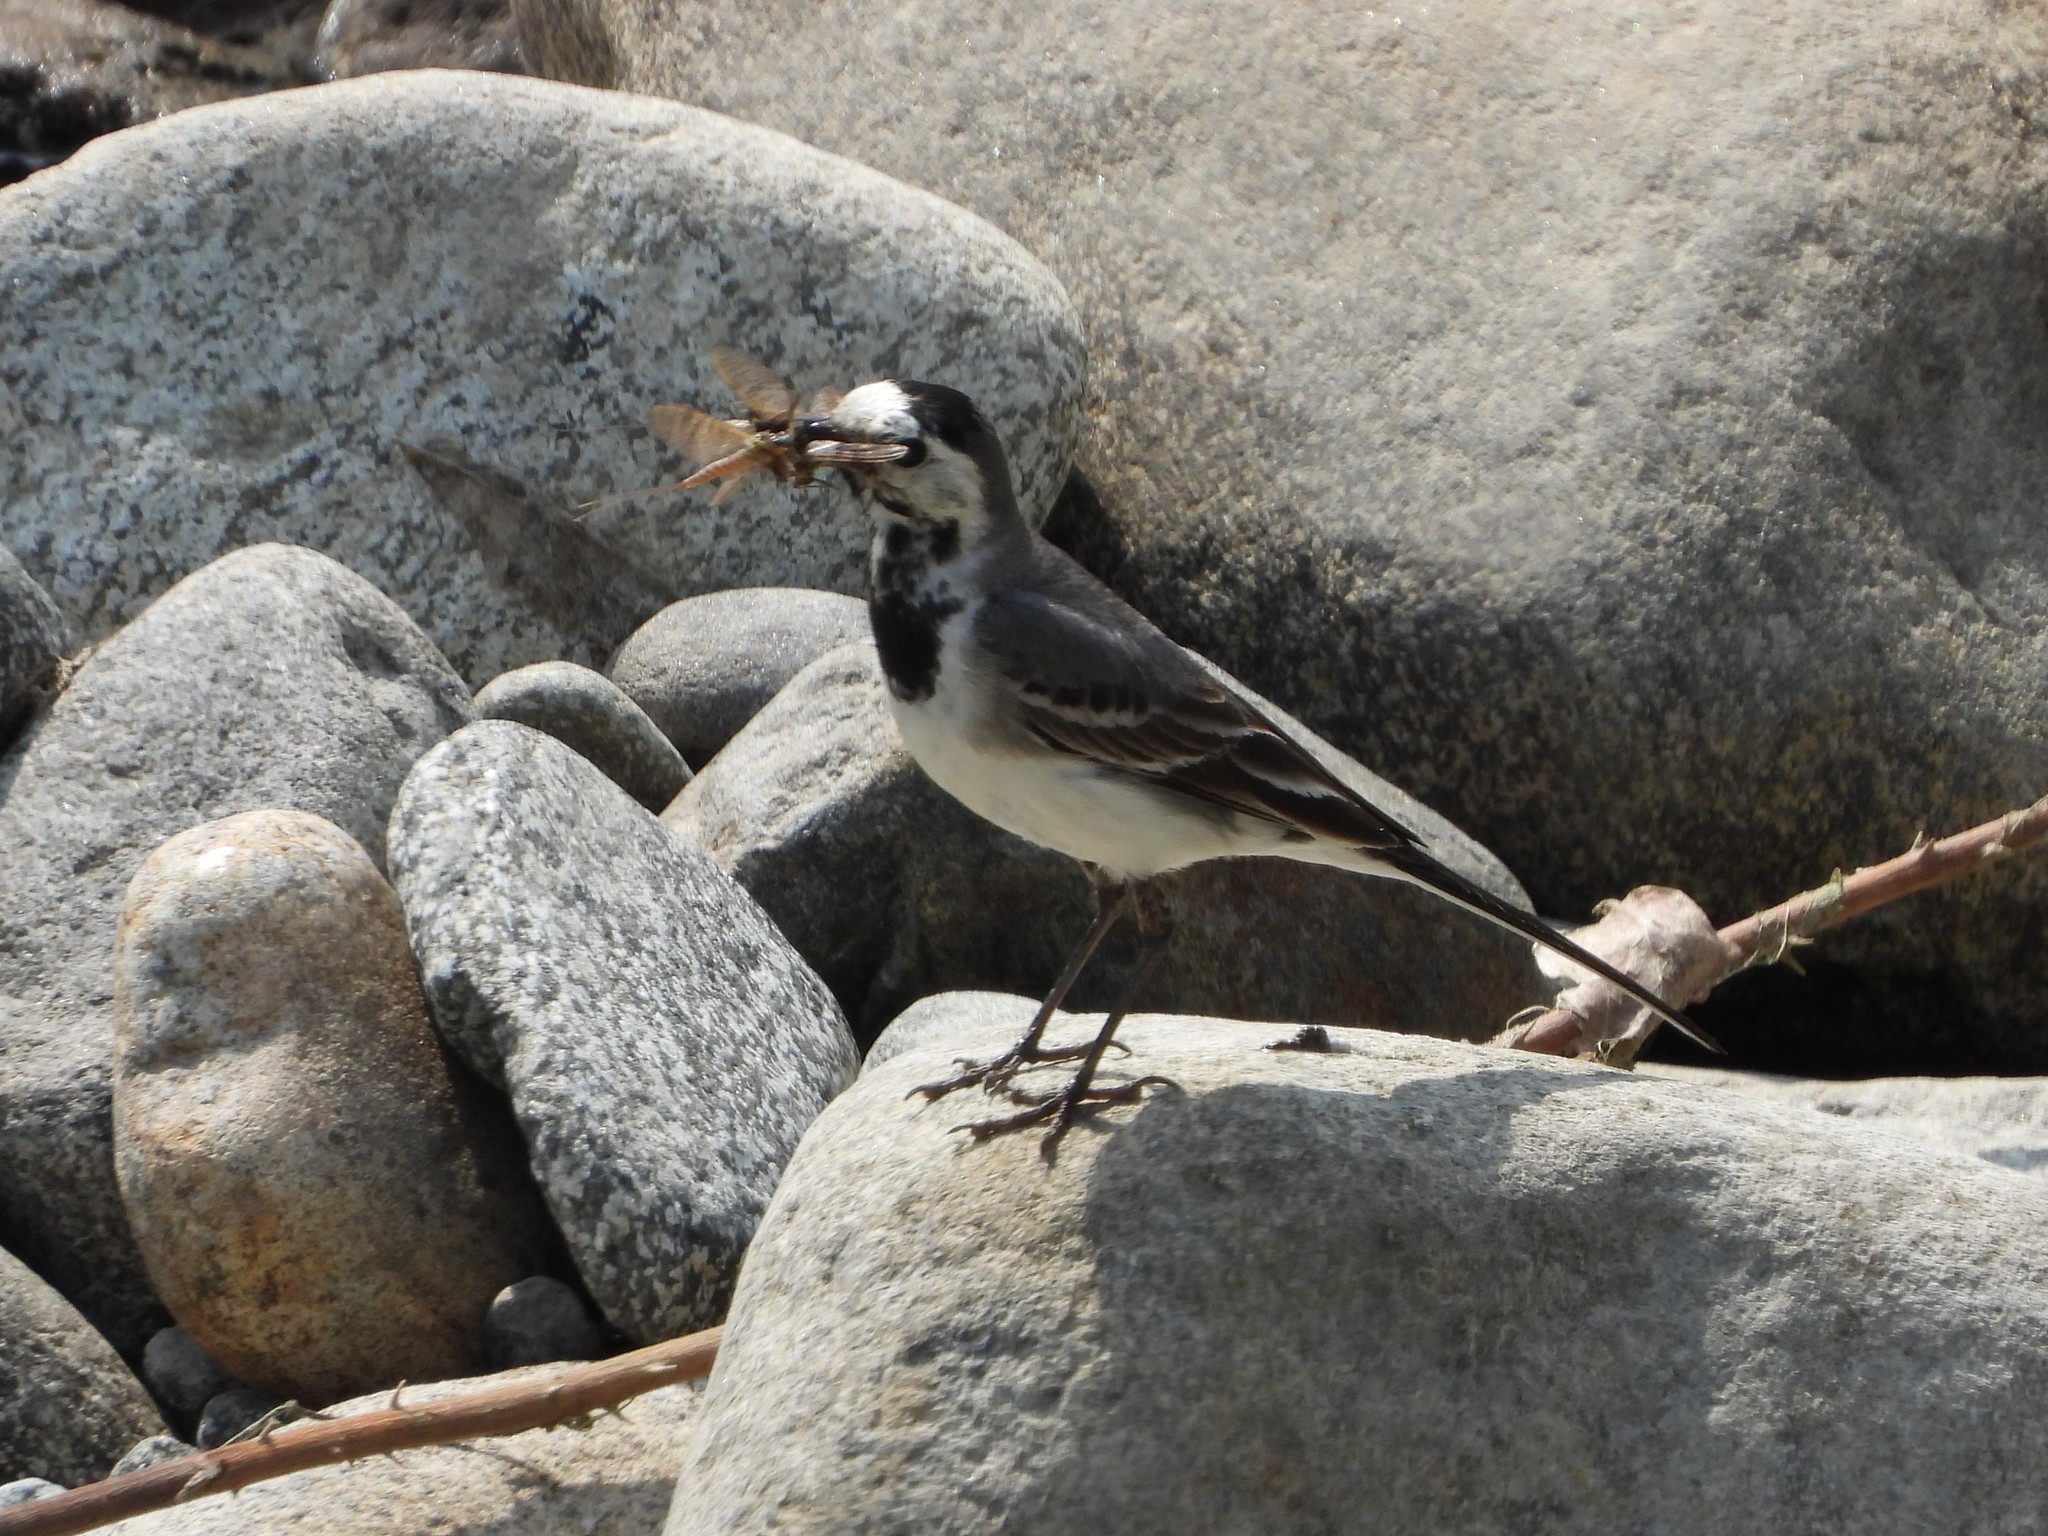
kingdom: Animalia
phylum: Chordata
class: Aves
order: Passeriformes
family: Motacillidae
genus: Motacilla
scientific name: Motacilla alba
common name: White wagtail
